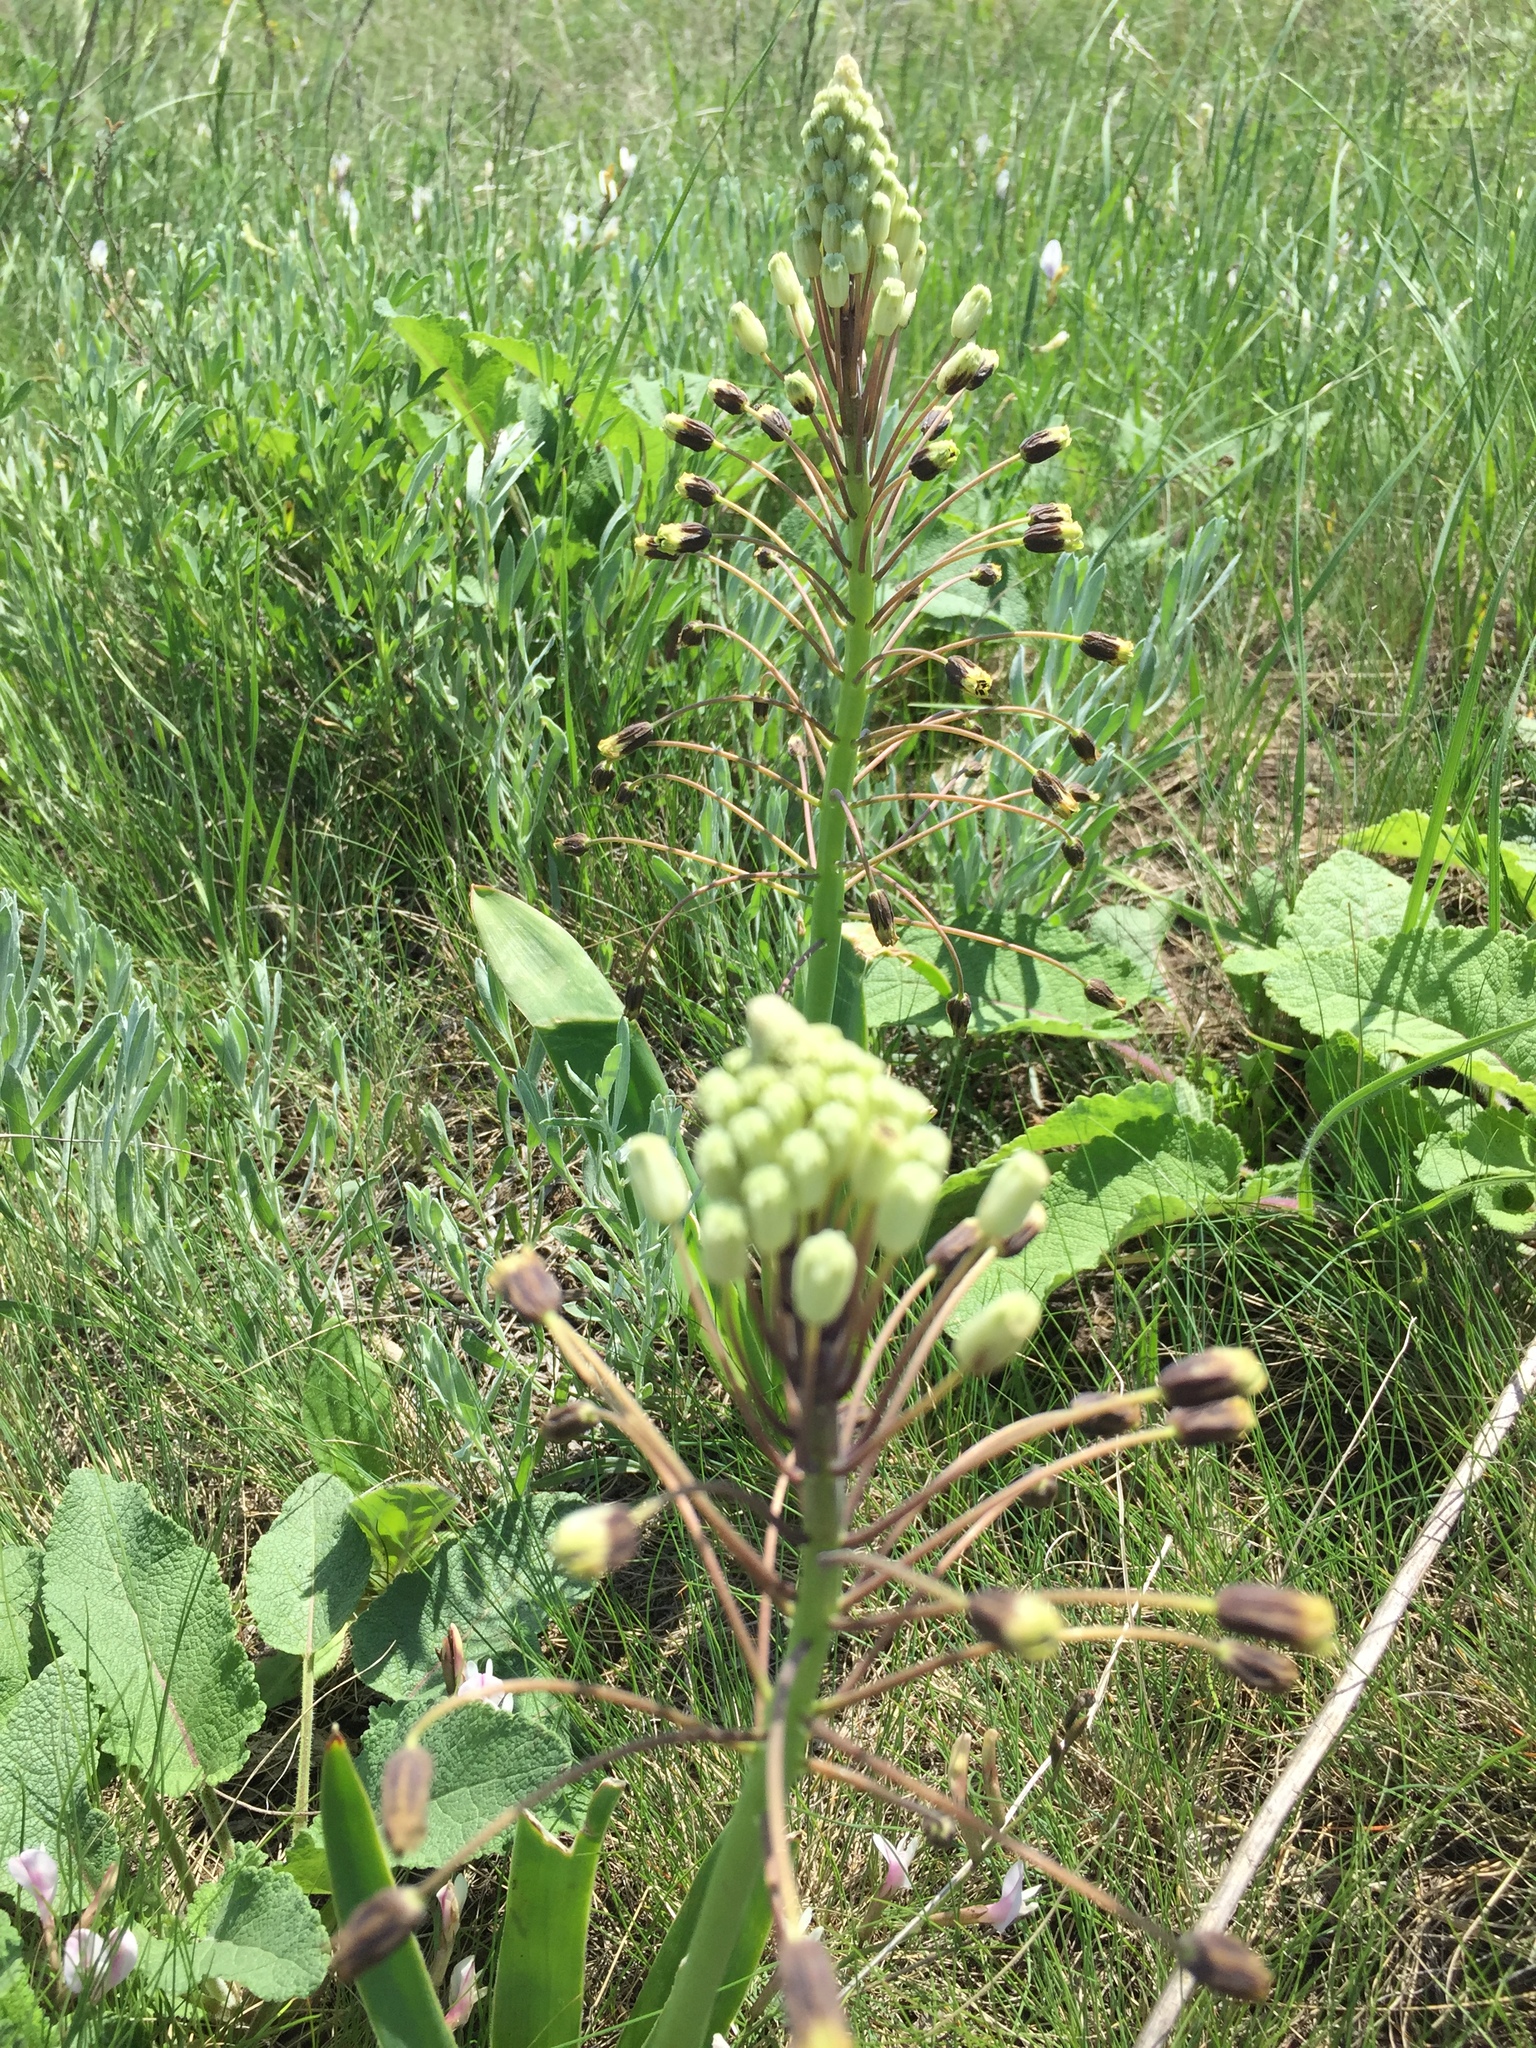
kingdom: Plantae
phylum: Tracheophyta
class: Liliopsida
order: Asparagales
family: Asparagaceae
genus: Bellevalia
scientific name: Bellevalia speciosa
